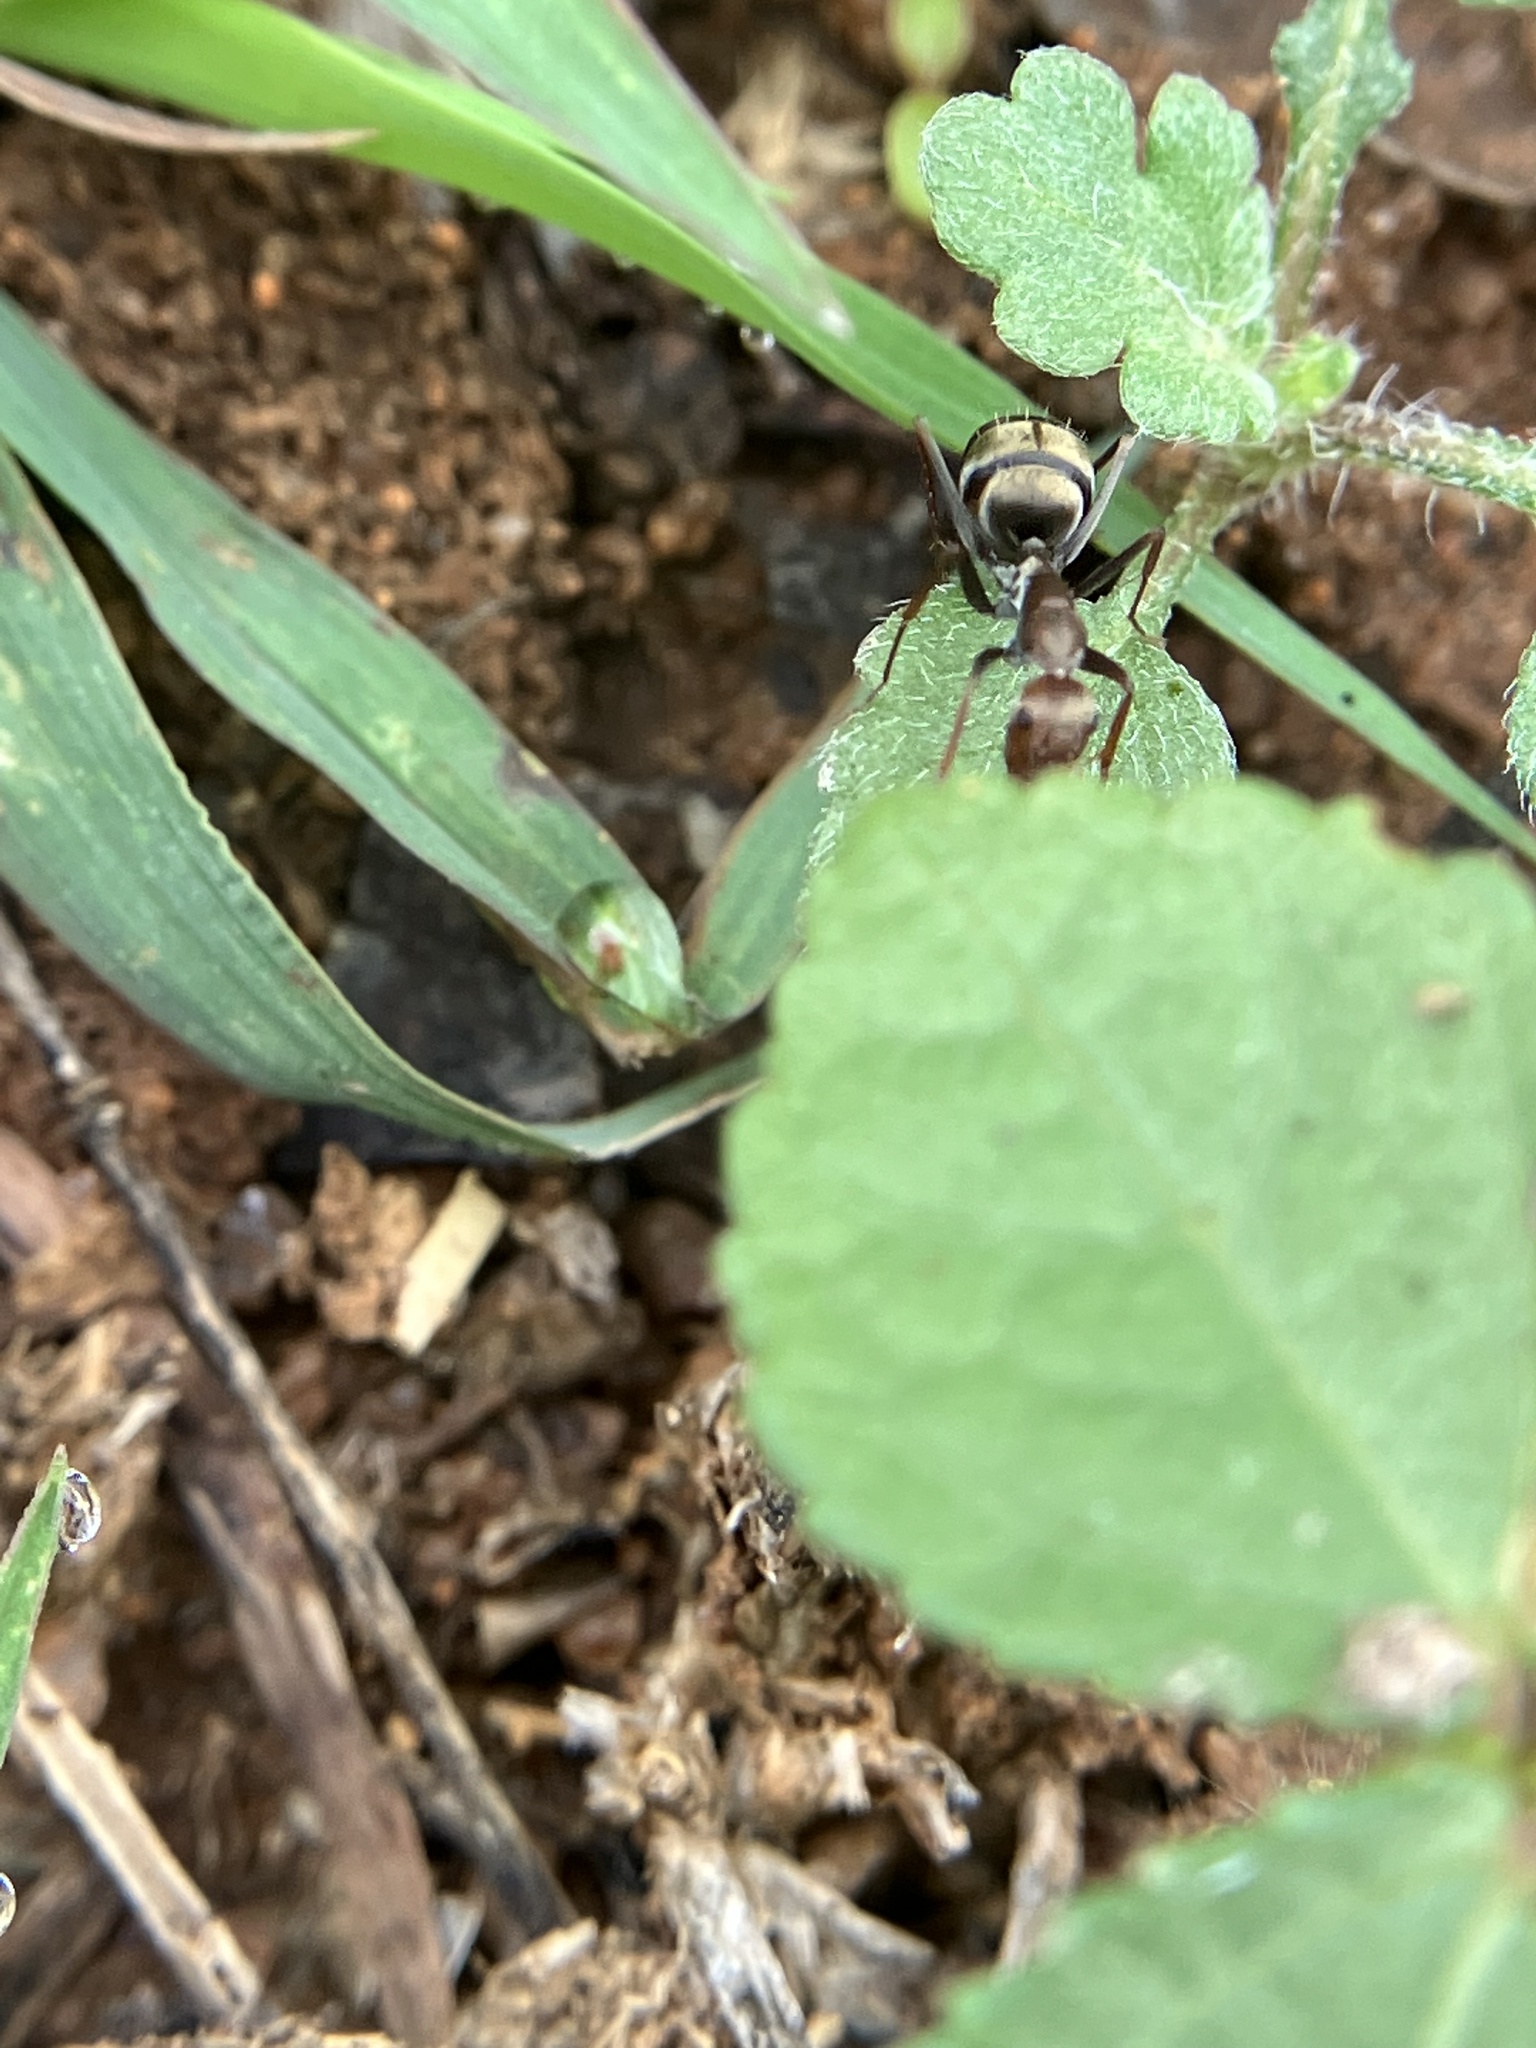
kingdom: Animalia
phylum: Arthropoda
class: Insecta
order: Hymenoptera
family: Formicidae
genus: Camponotus
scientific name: Camponotus rufoglaucus
